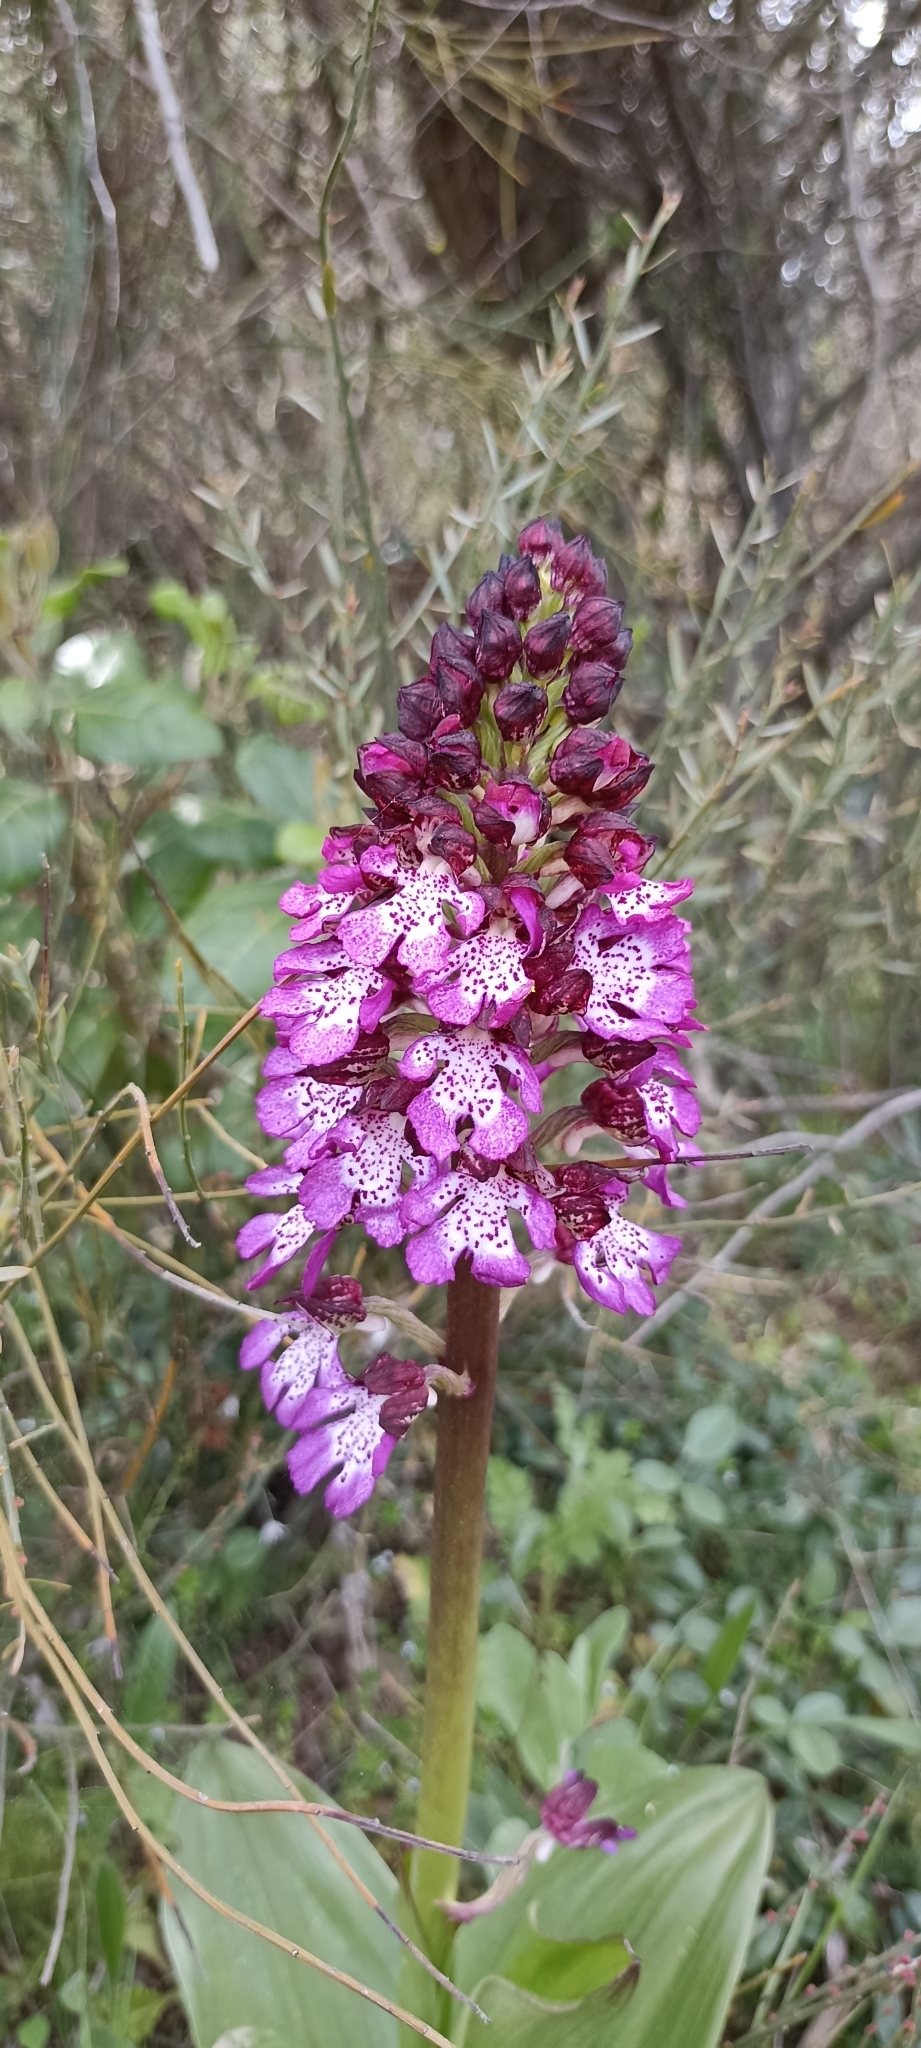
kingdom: Plantae
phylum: Tracheophyta
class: Liliopsida
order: Asparagales
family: Orchidaceae
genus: Orchis
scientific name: Orchis purpurea
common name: Lady orchid
